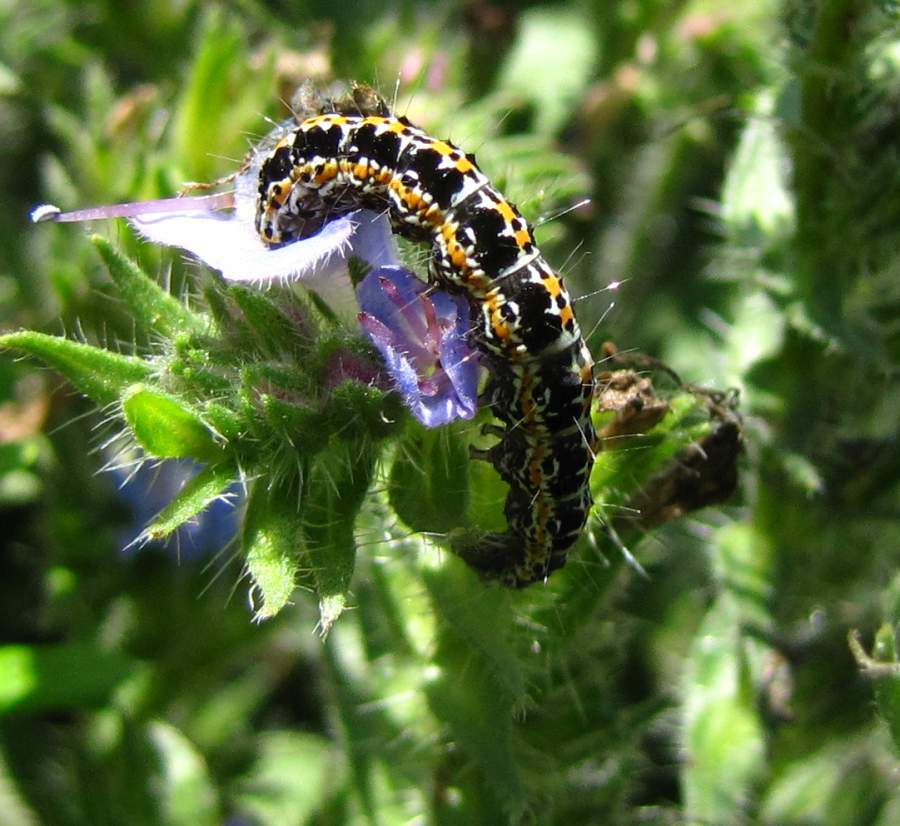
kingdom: Animalia
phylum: Arthropoda
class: Insecta
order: Lepidoptera
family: Ethmiidae
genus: Ethmia
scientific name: Ethmia bipunctella
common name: Bordered ermel
